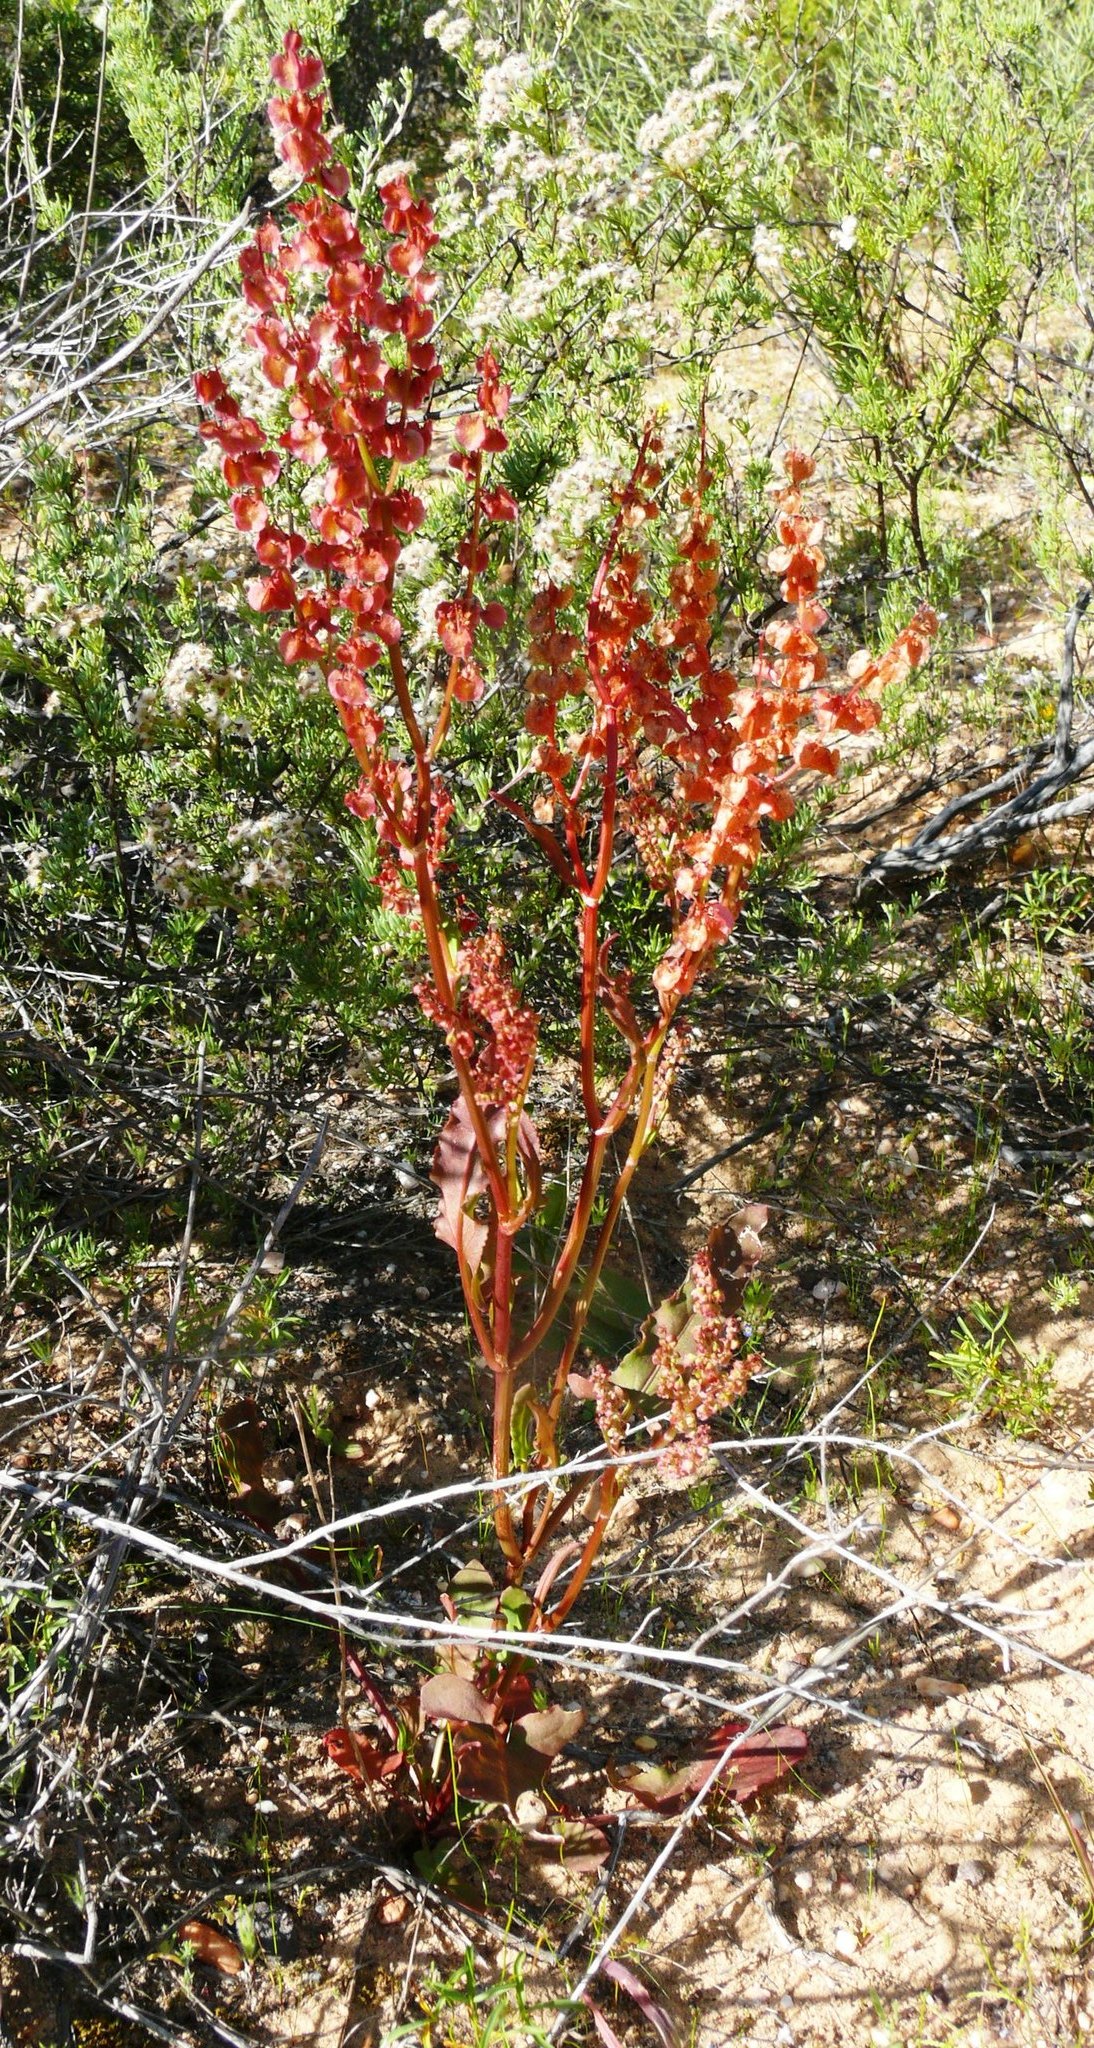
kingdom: Plantae
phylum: Tracheophyta
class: Magnoliopsida
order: Caryophyllales
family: Polygonaceae
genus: Rumex
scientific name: Rumex crispus
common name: Curled dock
